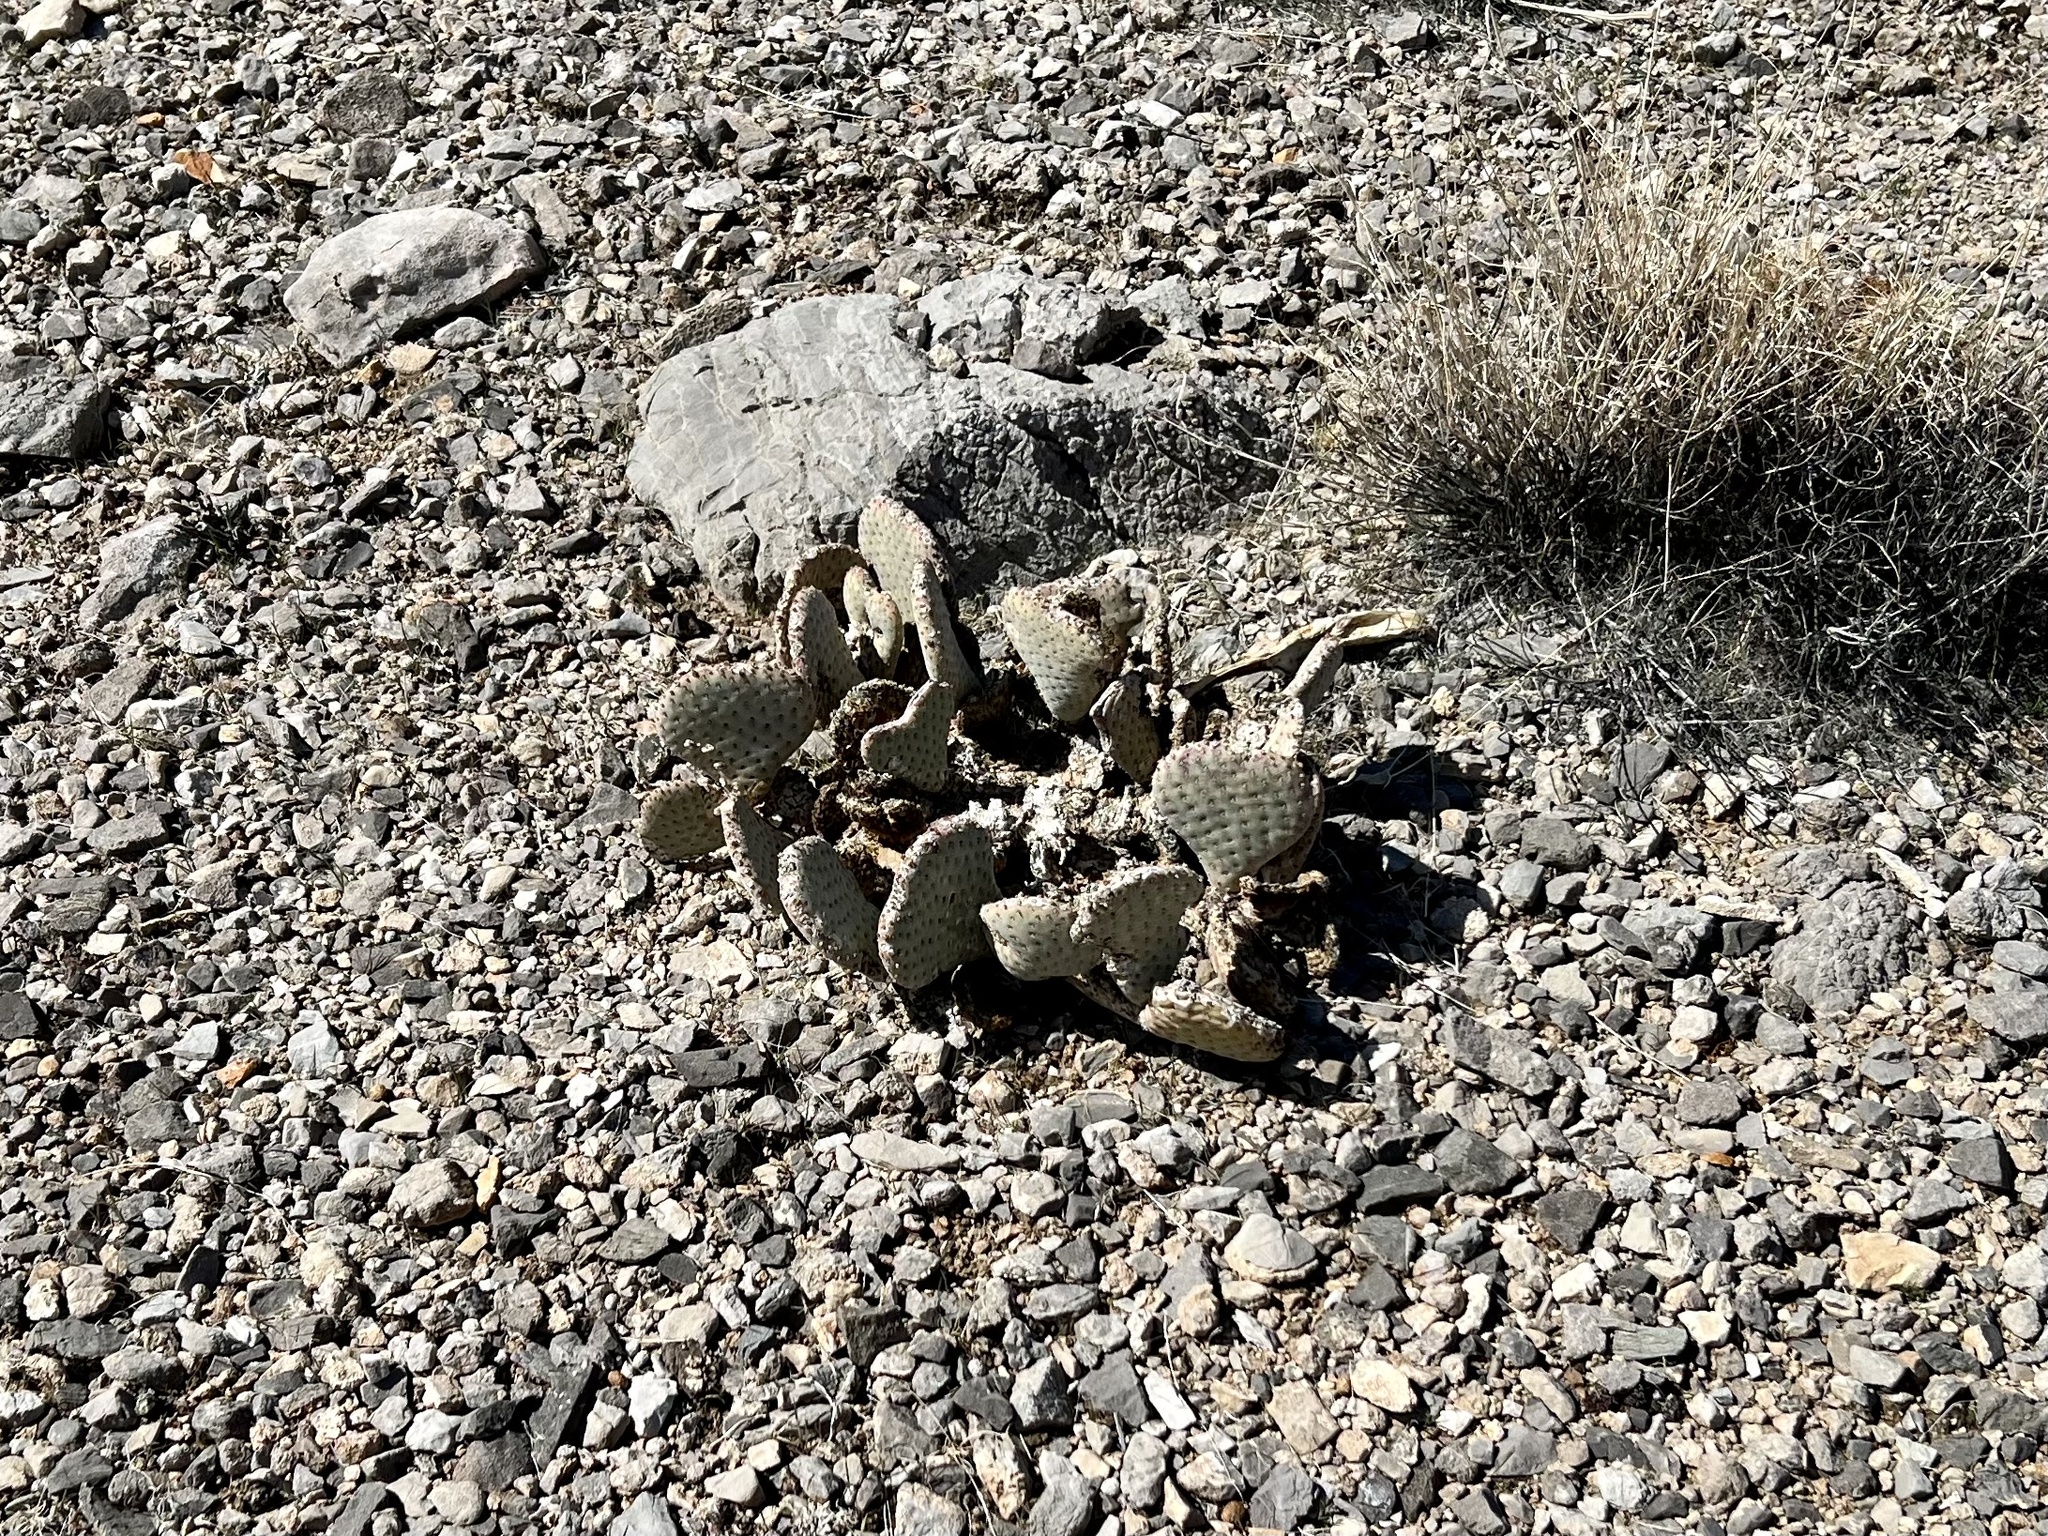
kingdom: Plantae
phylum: Tracheophyta
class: Magnoliopsida
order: Caryophyllales
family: Cactaceae
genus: Opuntia
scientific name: Opuntia basilaris
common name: Beavertail prickly-pear
